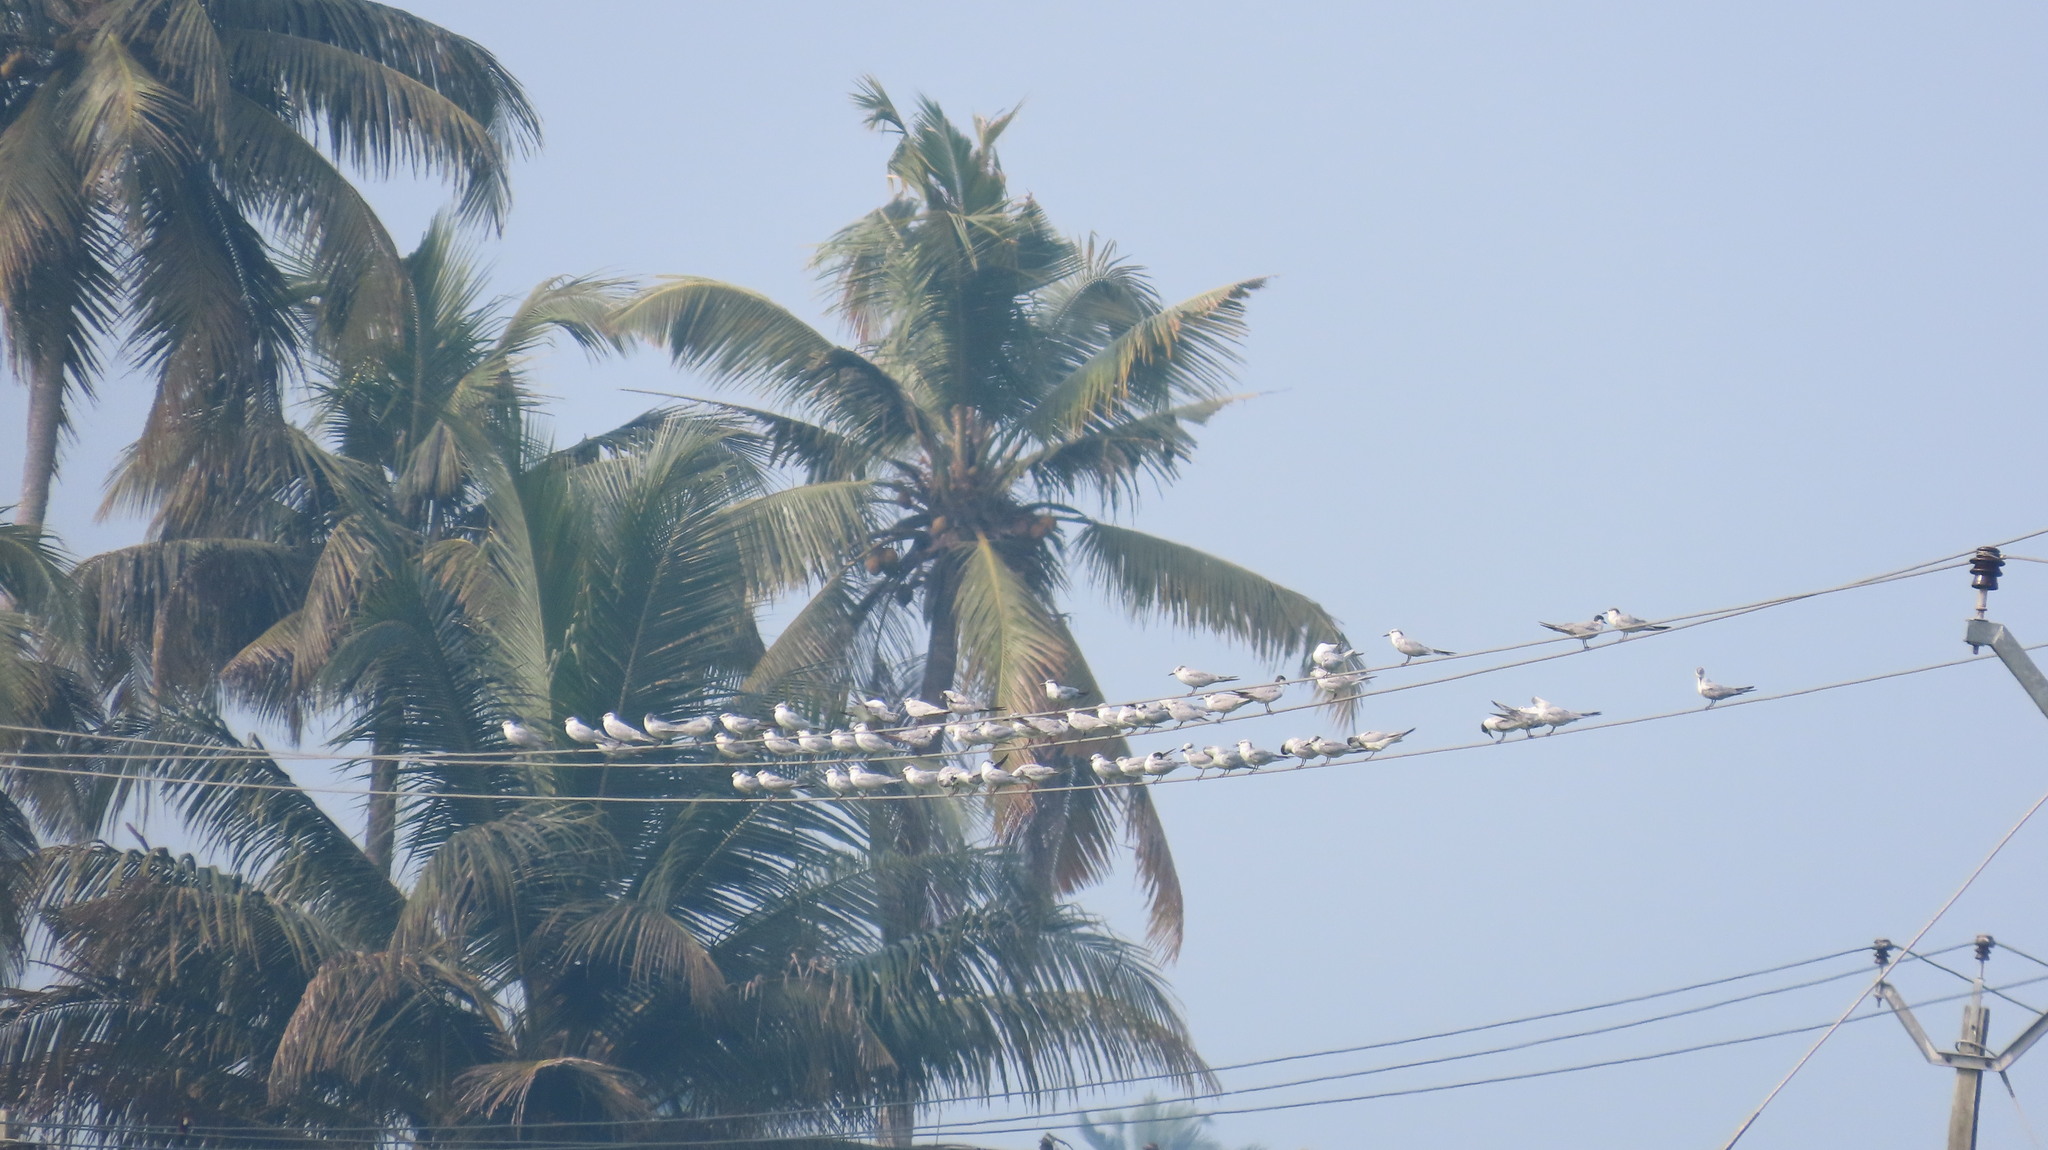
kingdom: Animalia
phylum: Chordata
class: Aves
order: Charadriiformes
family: Laridae
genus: Chlidonias
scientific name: Chlidonias hybrida
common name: Whiskered tern
